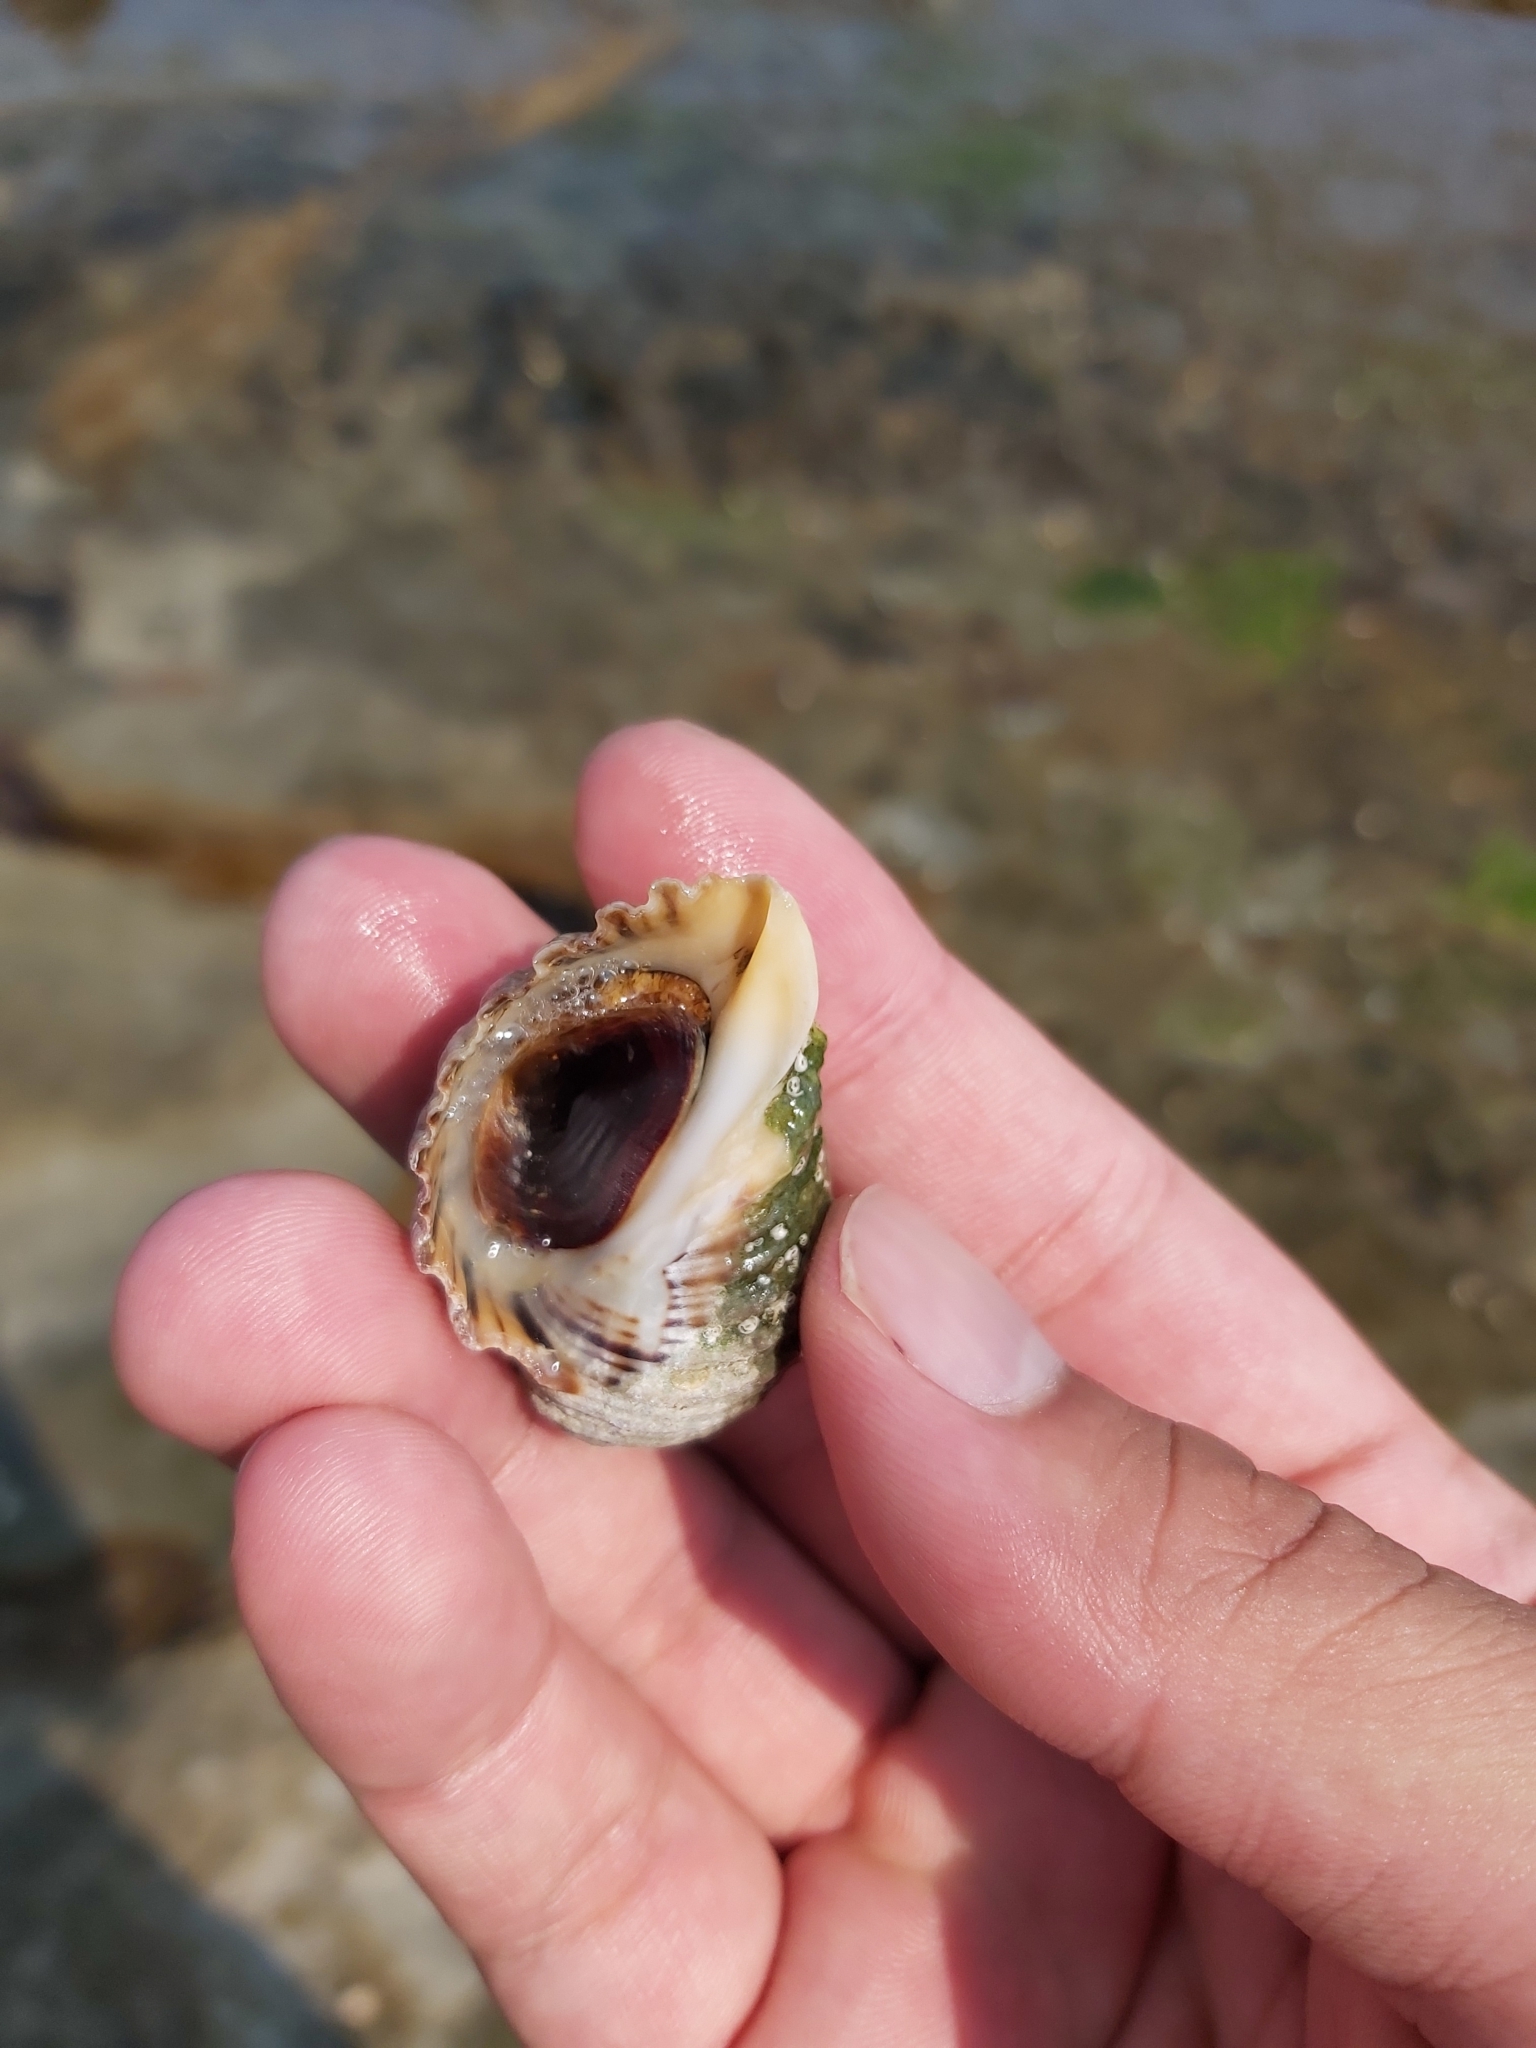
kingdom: Animalia
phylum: Mollusca
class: Gastropoda
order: Neogastropoda
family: Muricidae
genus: Dicathais
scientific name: Dicathais orbita
